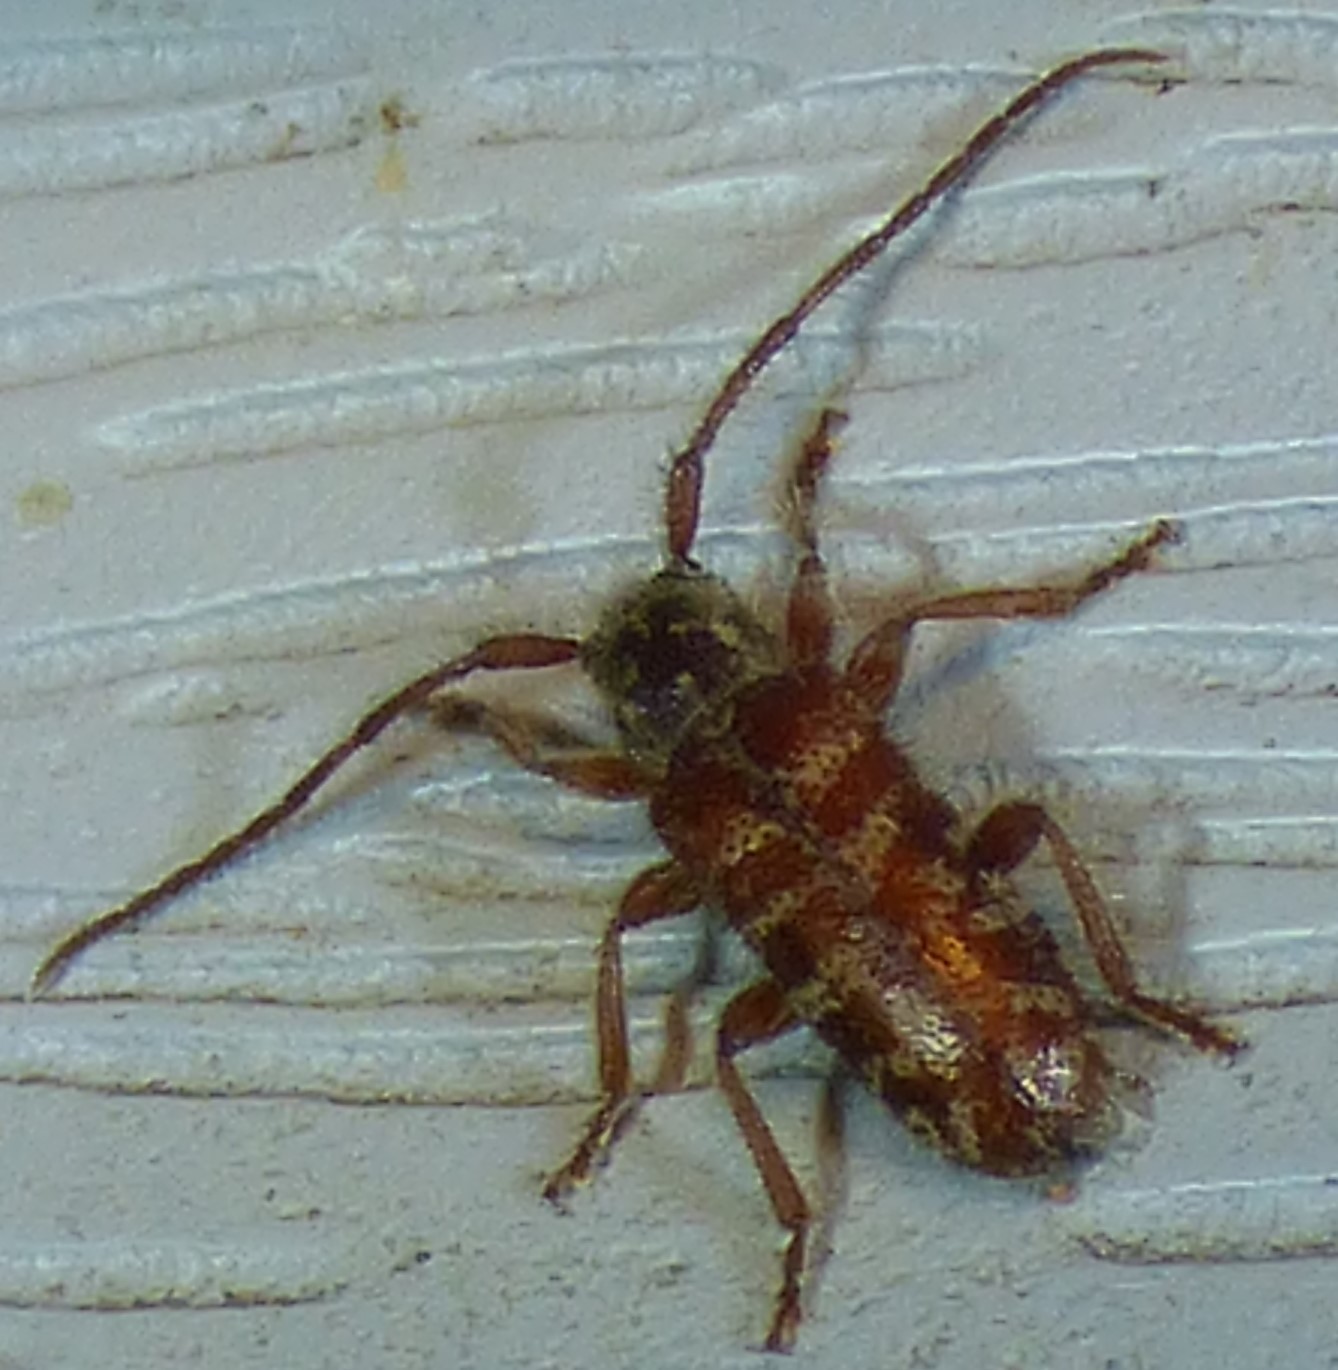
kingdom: Animalia
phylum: Arthropoda
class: Insecta
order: Coleoptera
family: Cerambycidae
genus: Eupogonius
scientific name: Eupogonius tomentosus
